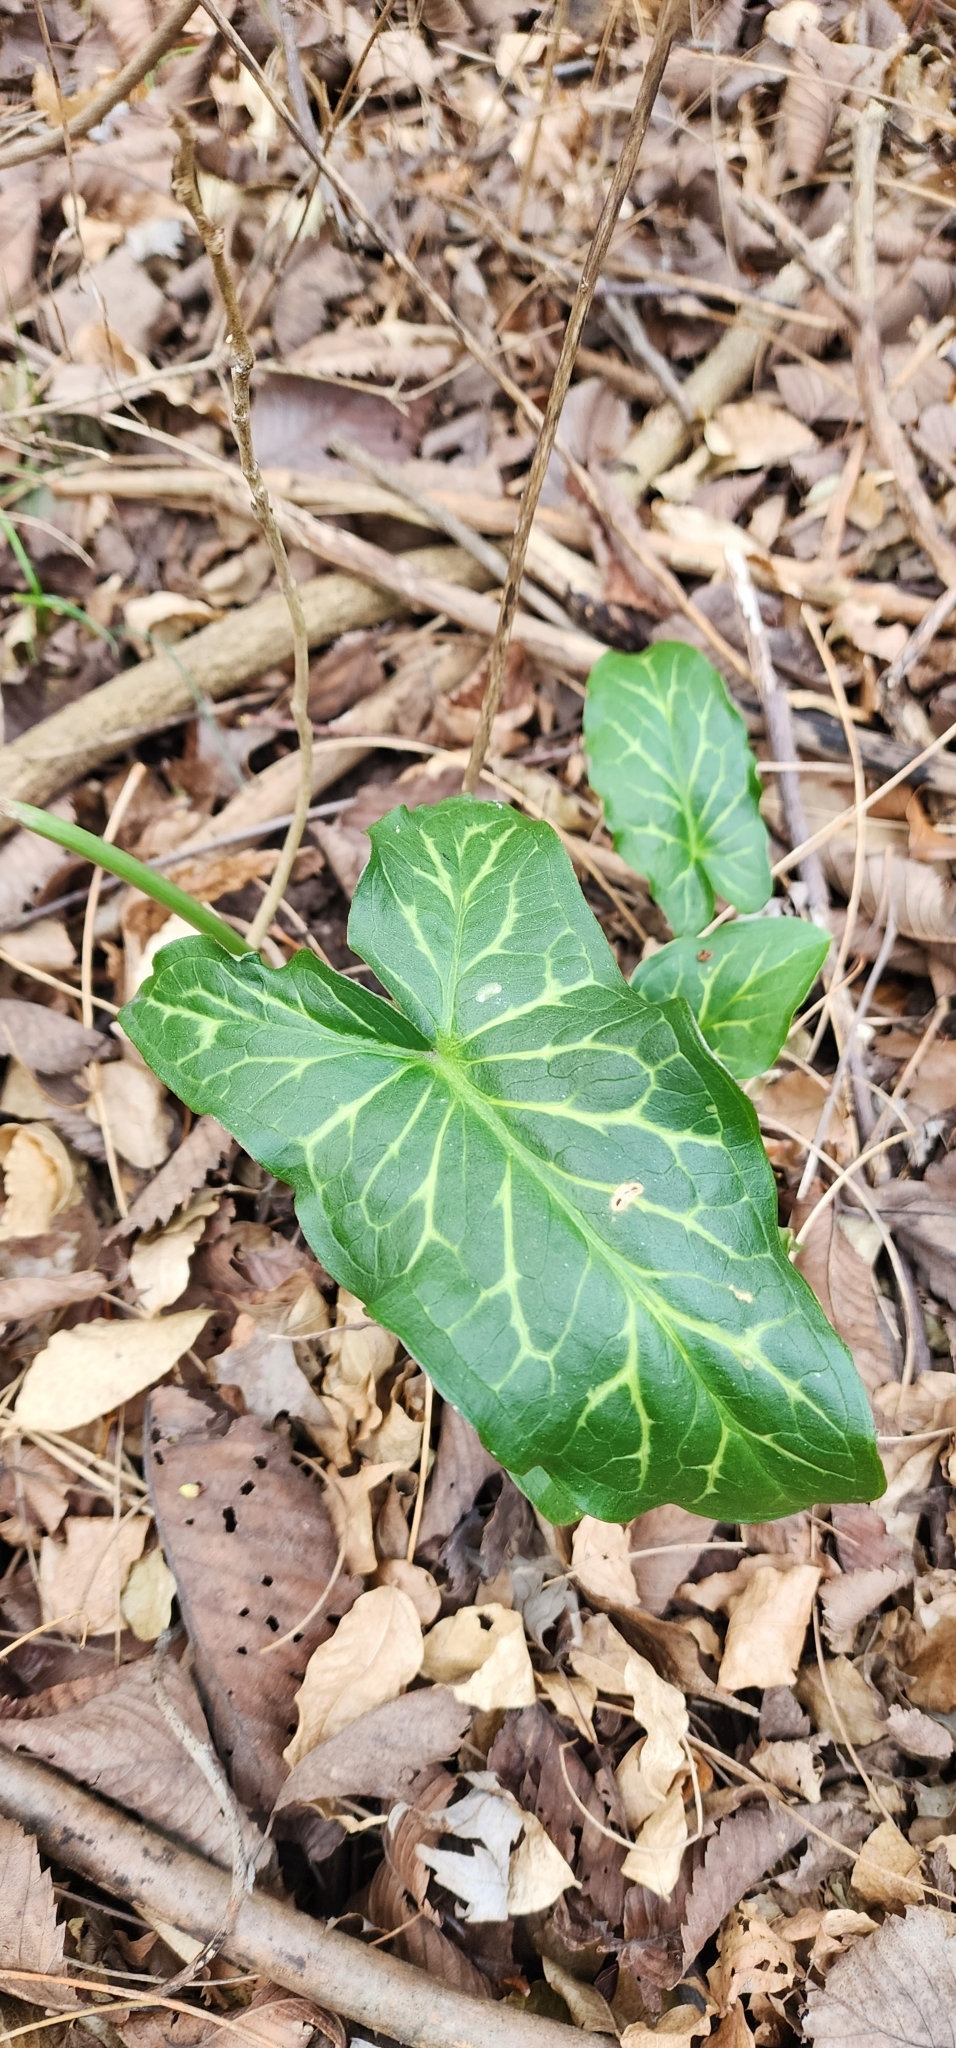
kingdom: Plantae
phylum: Tracheophyta
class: Liliopsida
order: Alismatales
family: Araceae
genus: Arum
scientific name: Arum italicum
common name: Italian lords-and-ladies
